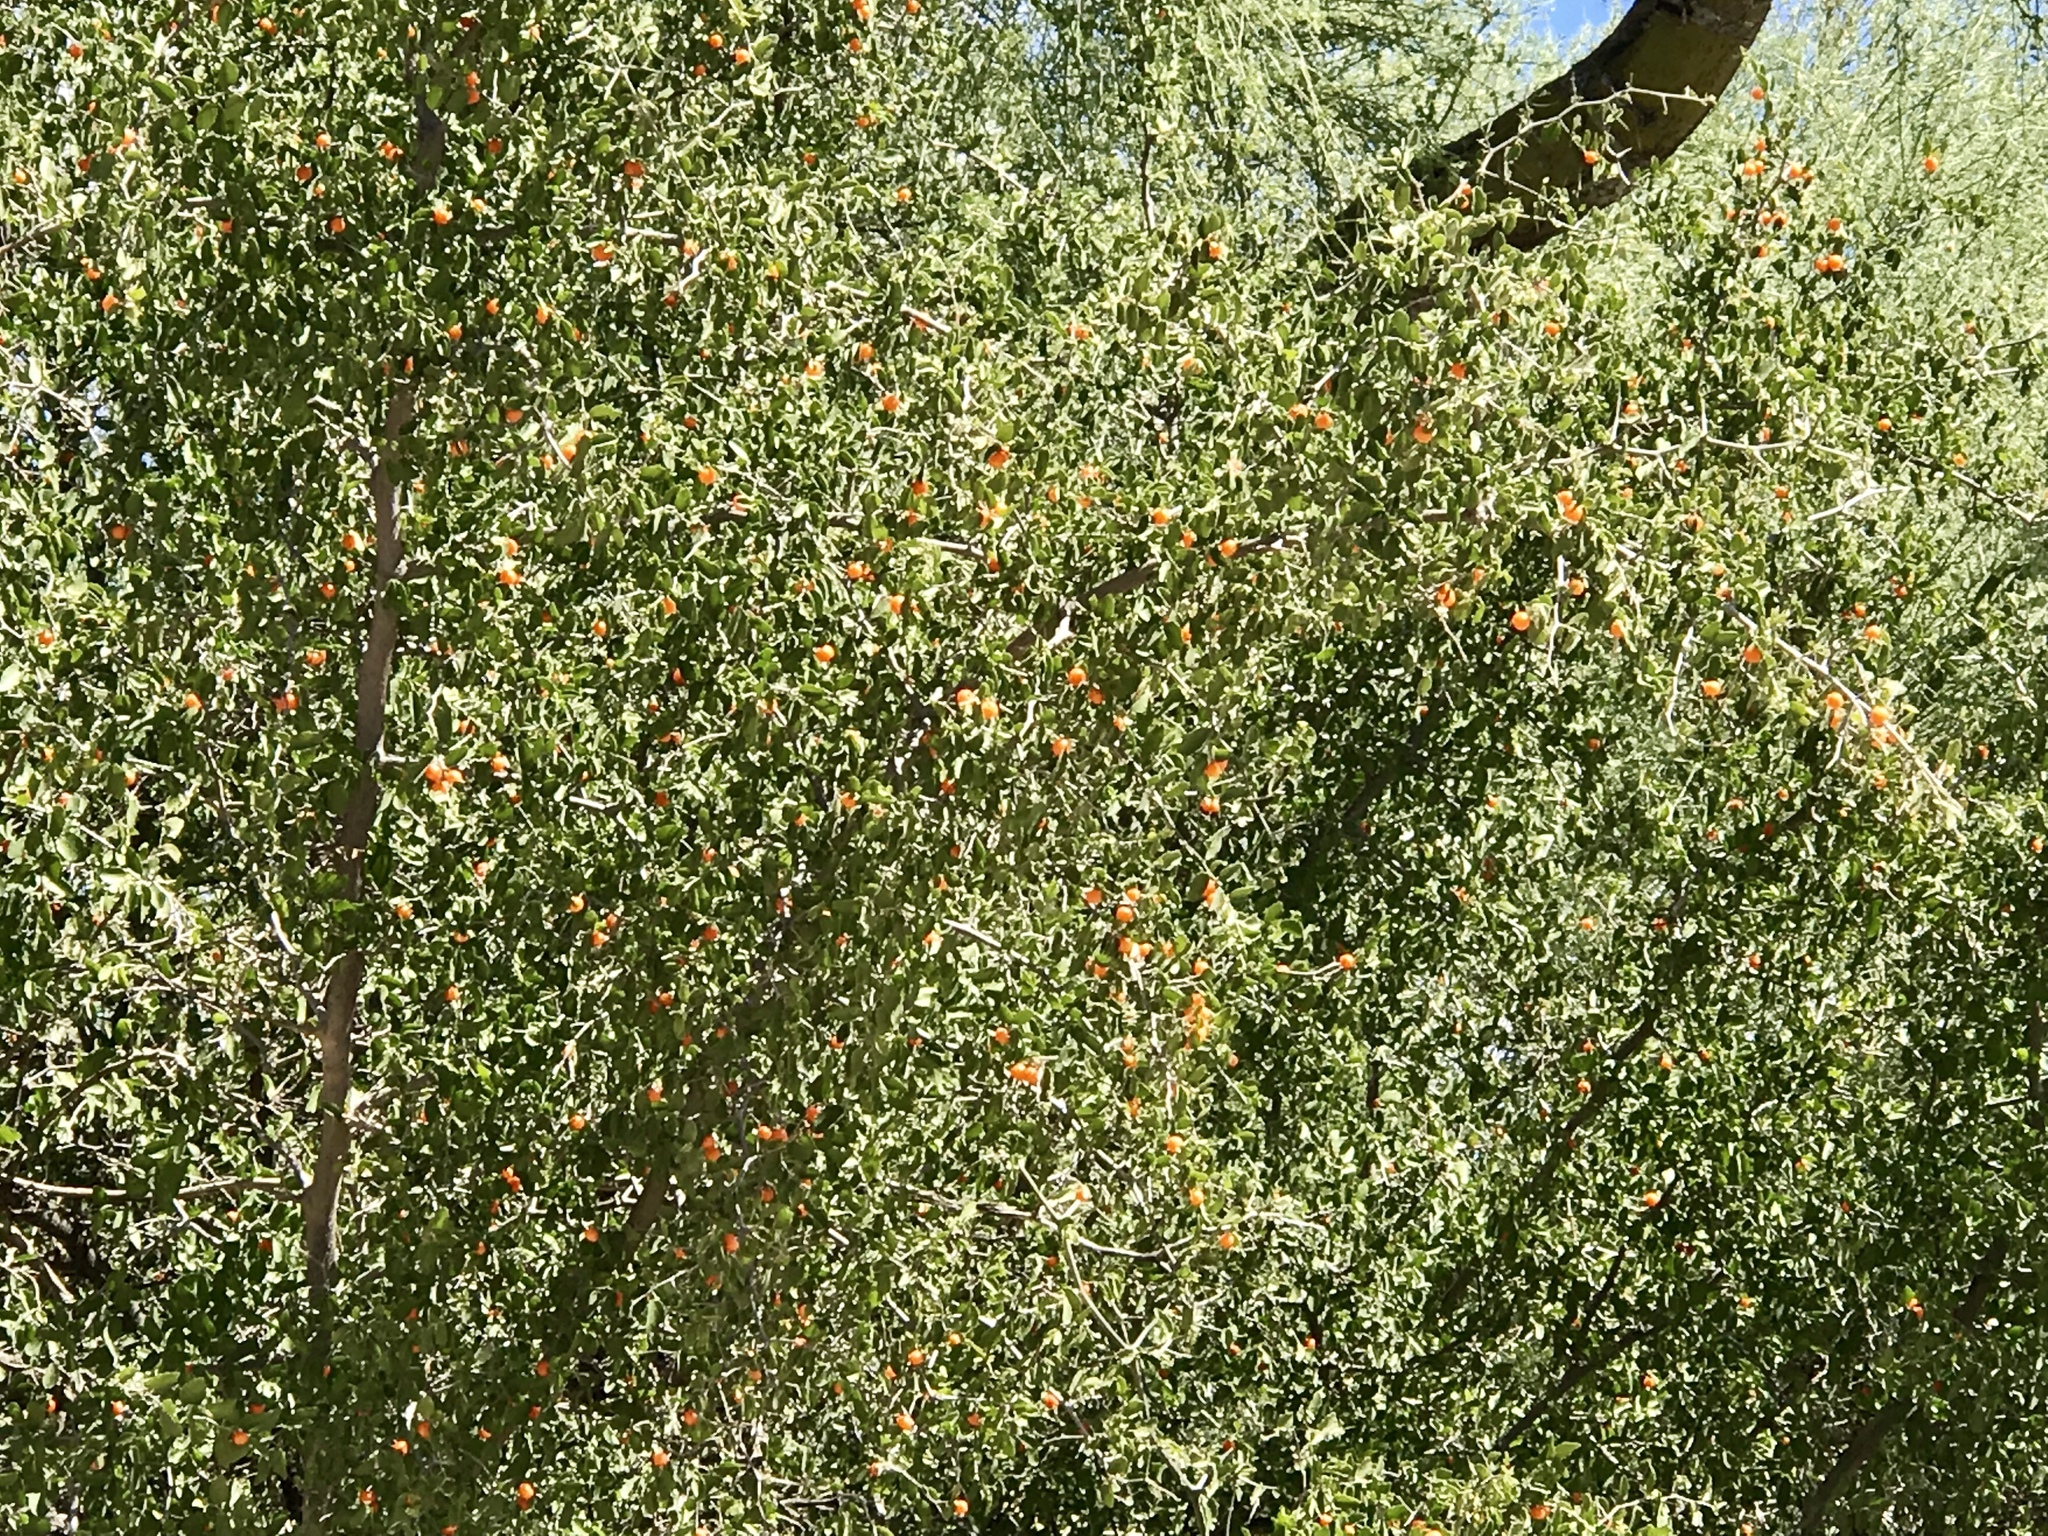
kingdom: Plantae
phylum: Tracheophyta
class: Magnoliopsida
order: Fabales
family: Fabaceae
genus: Vachellia
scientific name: Vachellia constricta
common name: Mescat acacia
